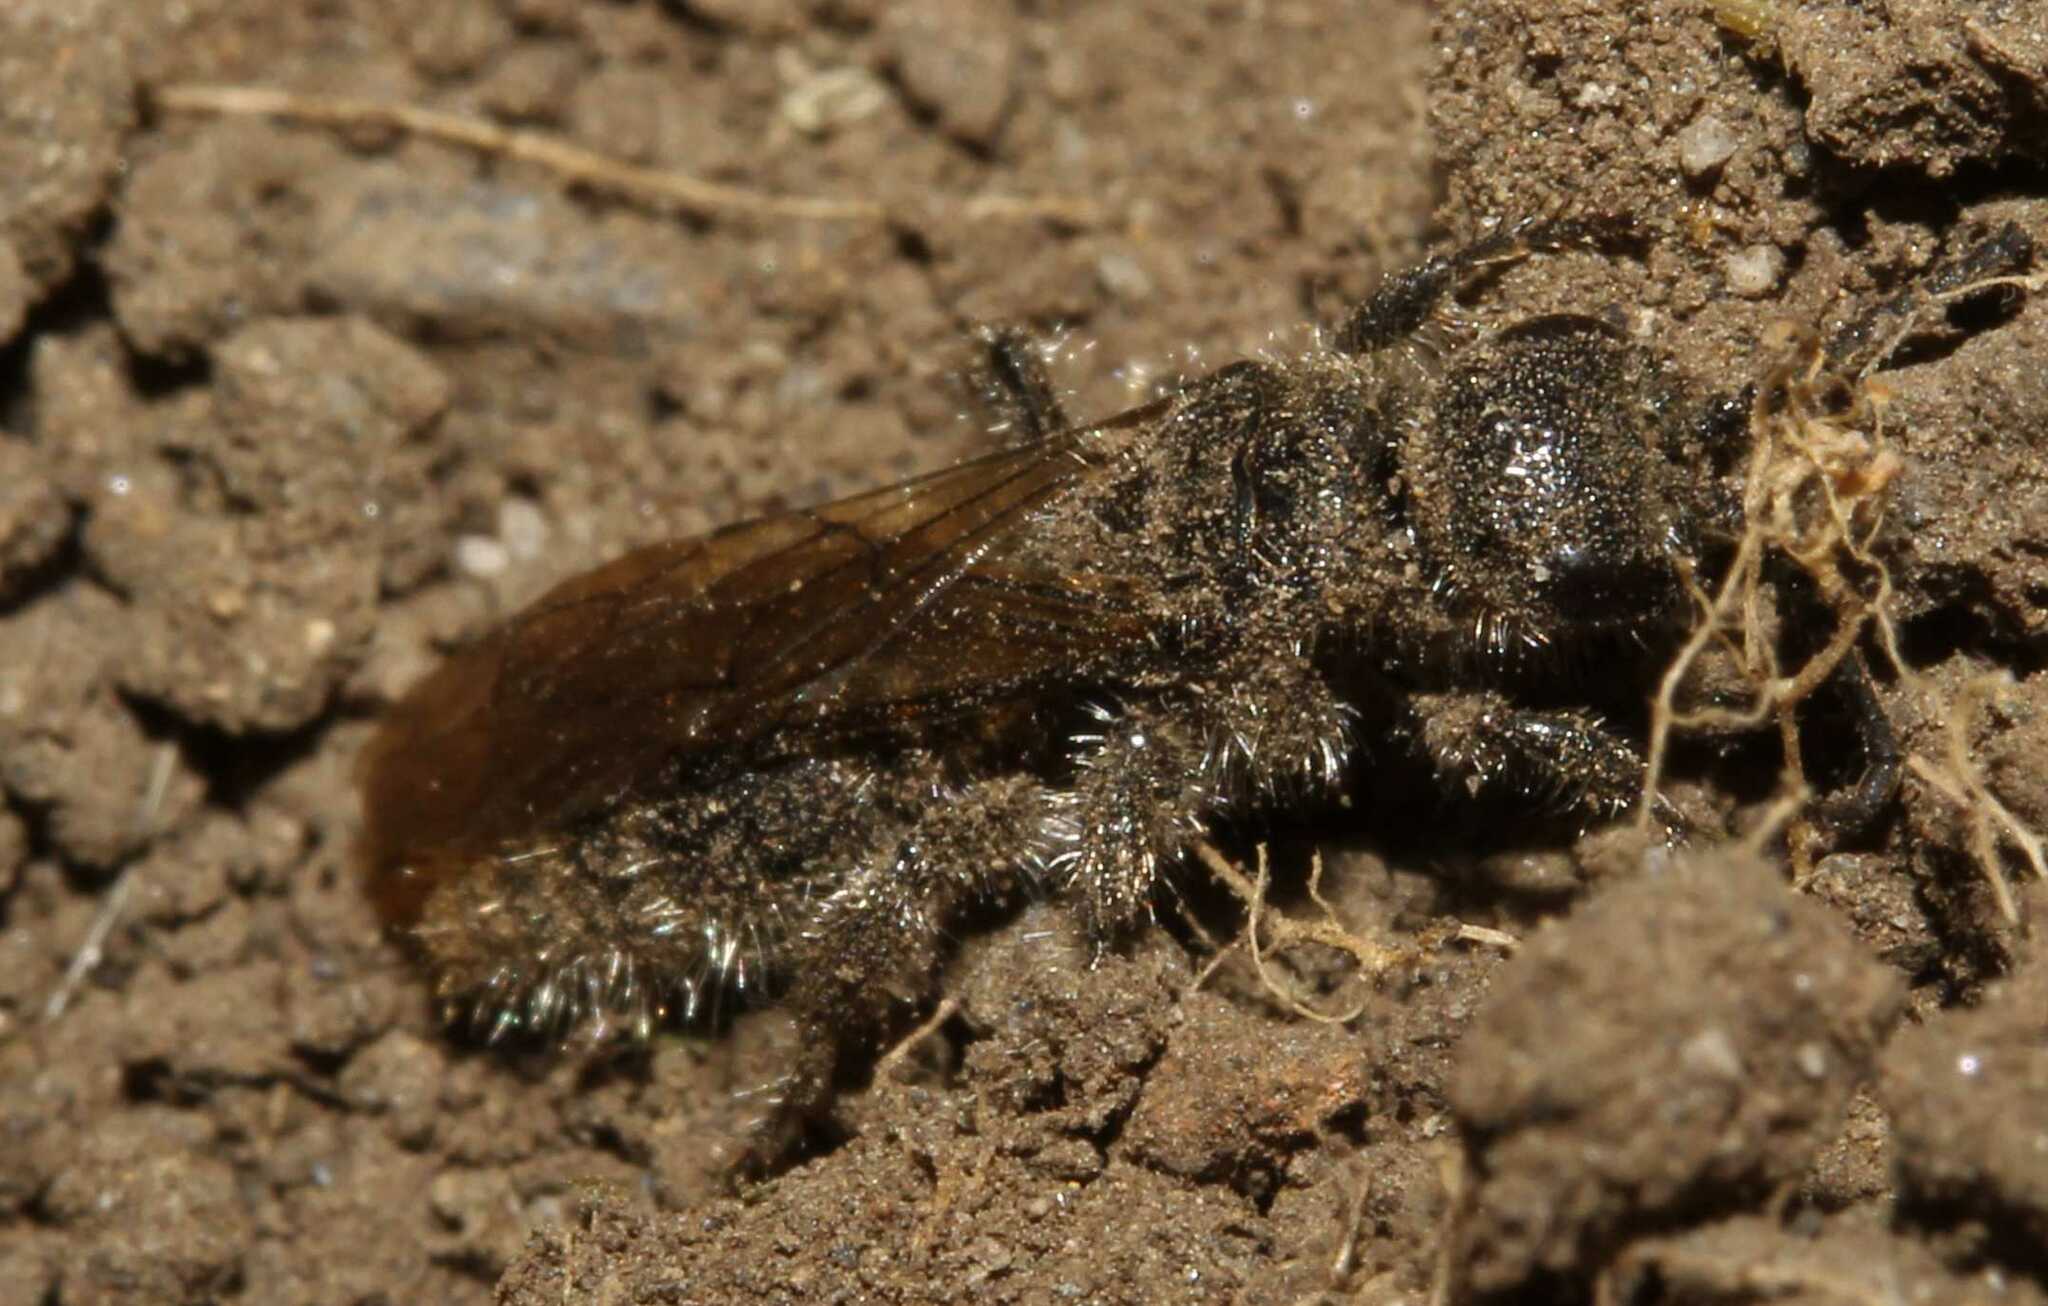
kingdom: Animalia
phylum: Arthropoda
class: Insecta
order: Hymenoptera
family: Tiphiidae
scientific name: Tiphiidae
